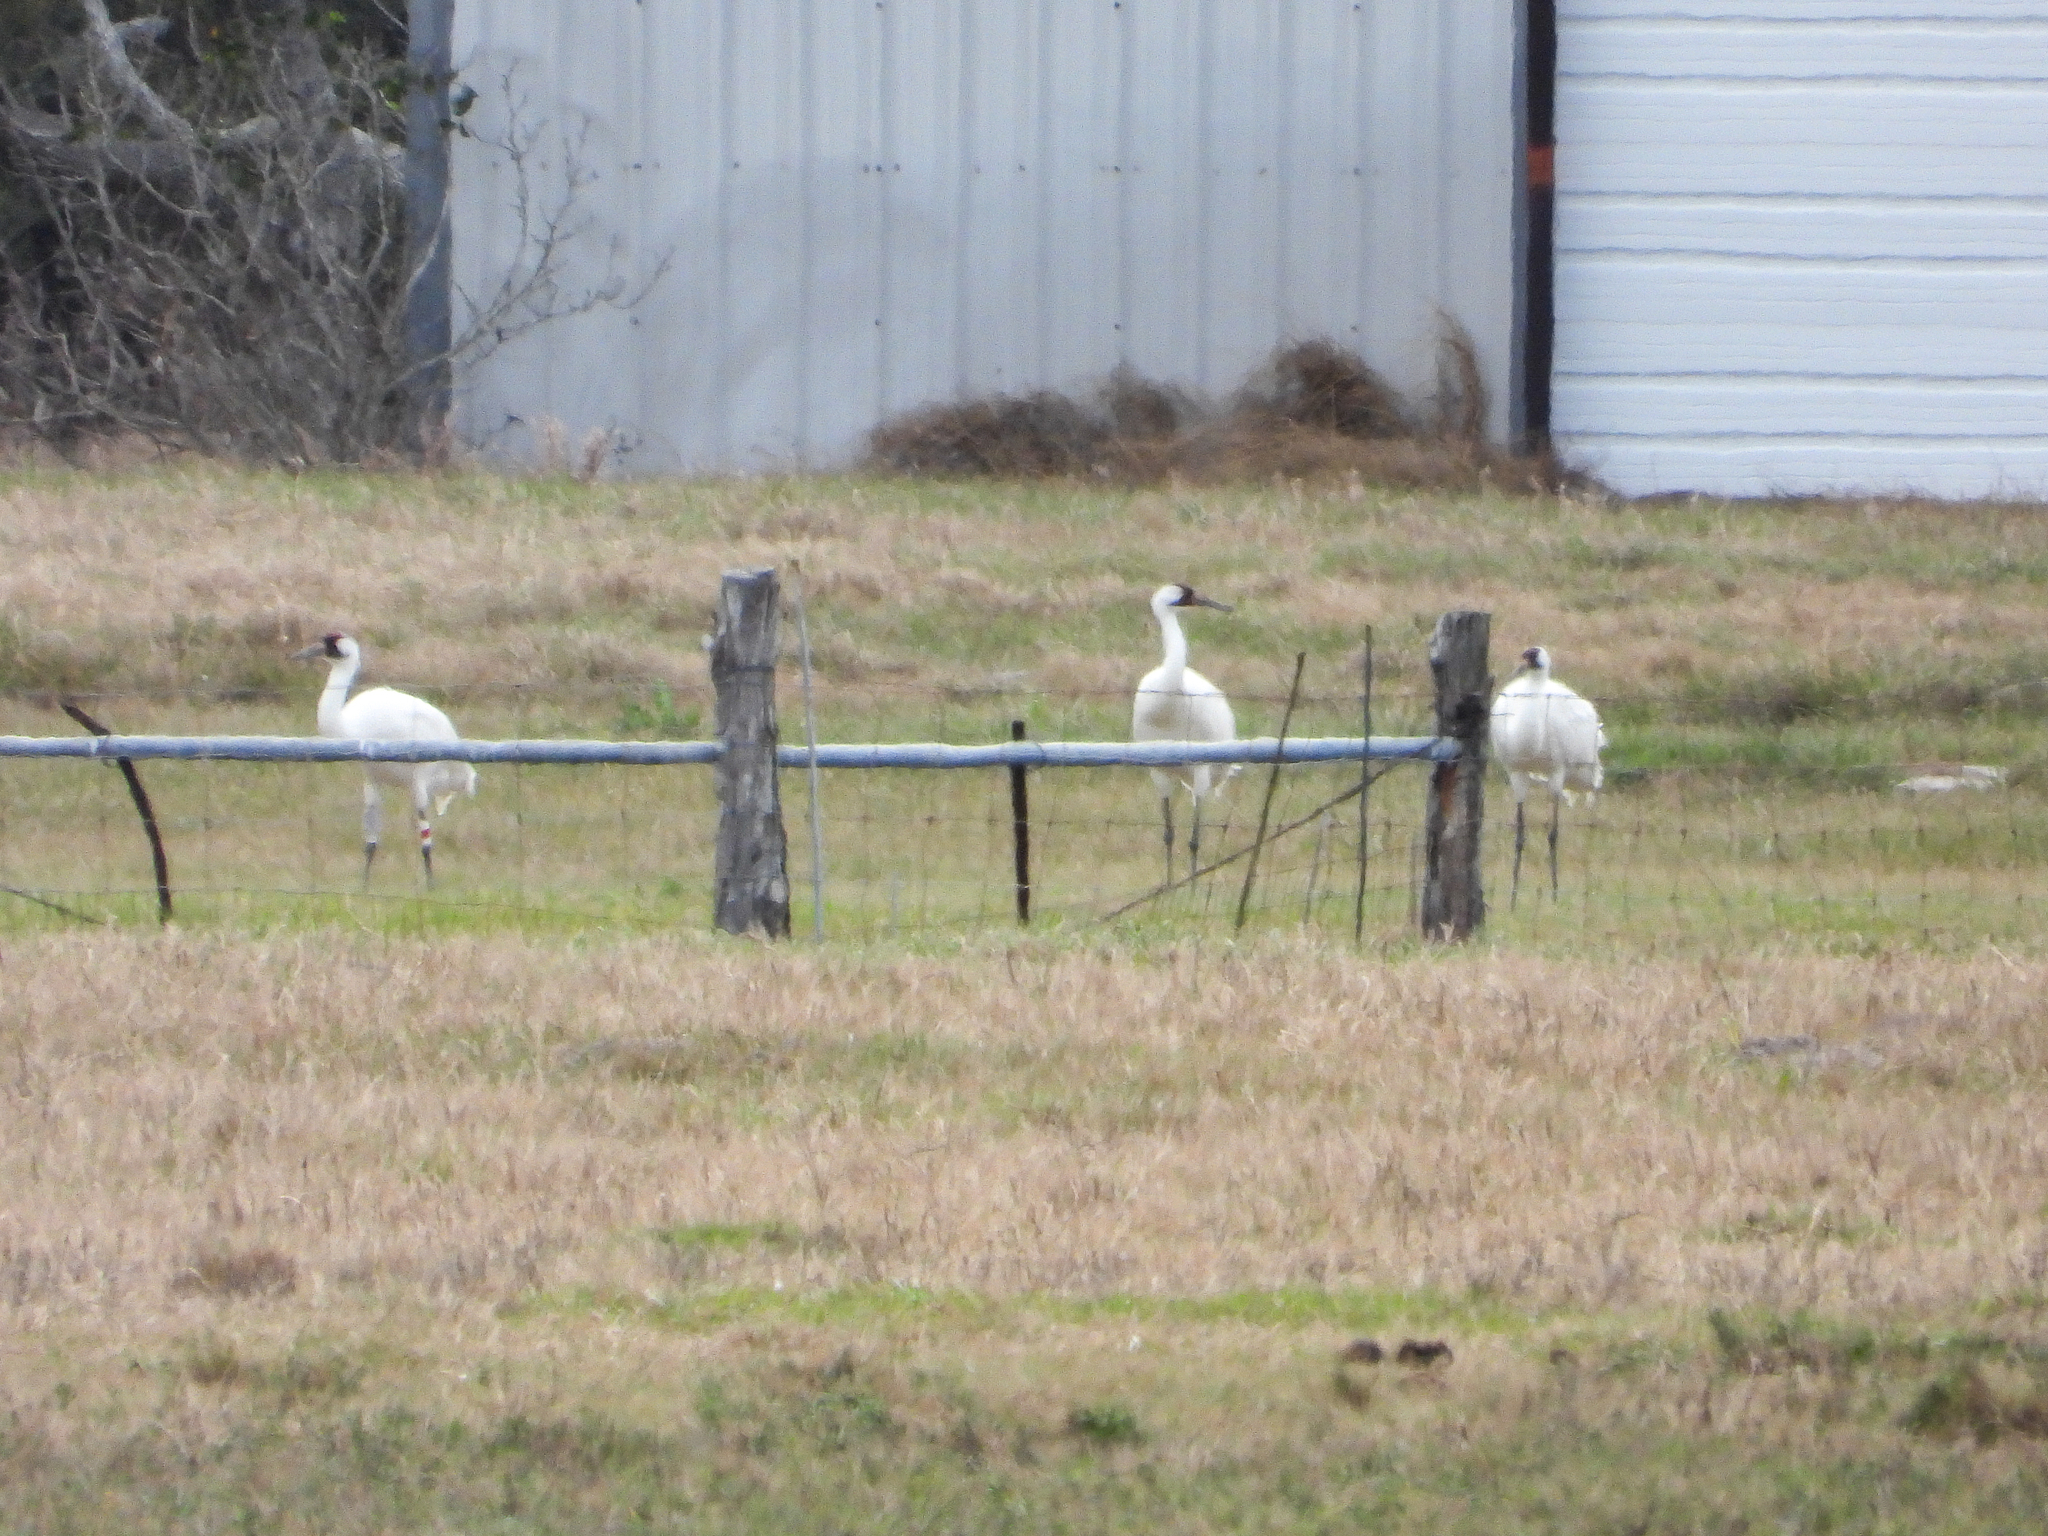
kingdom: Animalia
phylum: Chordata
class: Aves
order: Gruiformes
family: Gruidae
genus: Grus
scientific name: Grus americana
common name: Whooping crane
